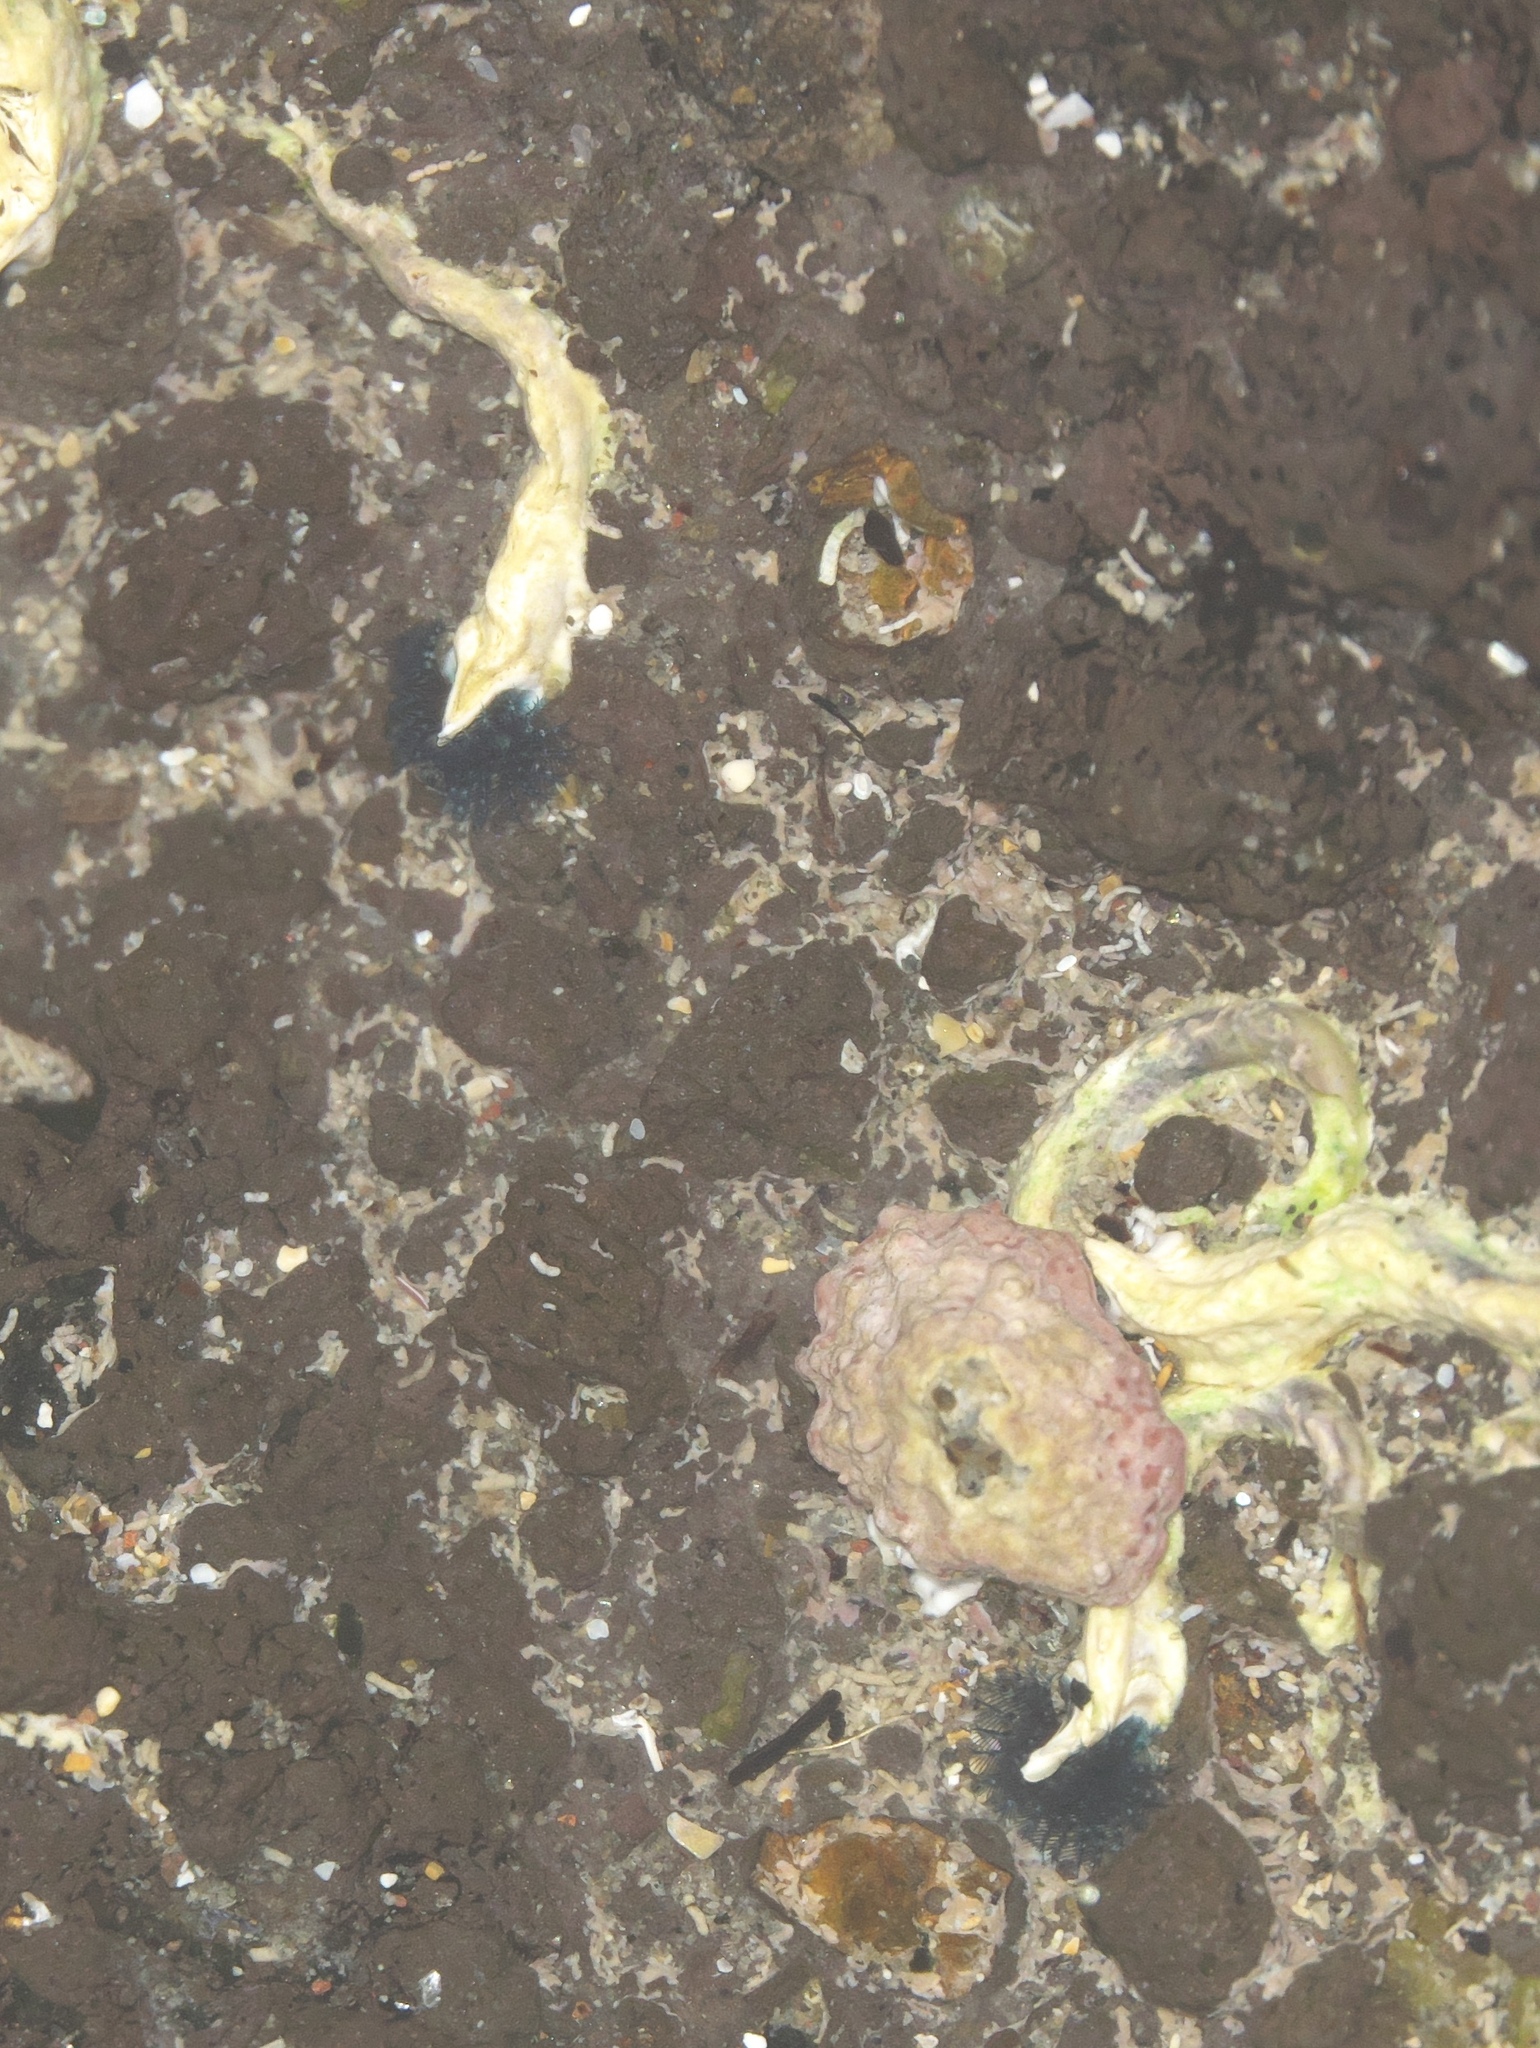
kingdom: Animalia
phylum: Annelida
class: Polychaeta
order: Sabellida
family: Serpulidae
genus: Spirobranchus
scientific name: Spirobranchus cariniferus
